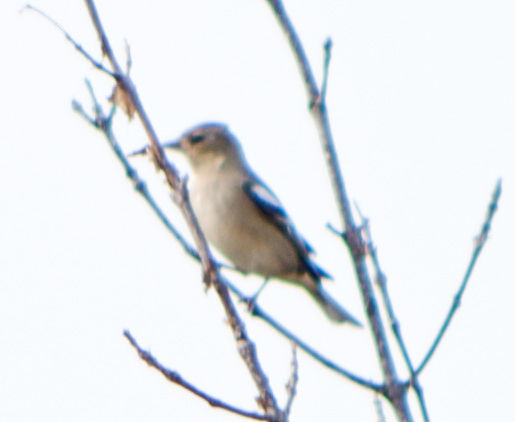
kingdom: Animalia
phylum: Chordata
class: Aves
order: Passeriformes
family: Fringillidae
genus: Fringilla
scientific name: Fringilla coelebs
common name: Common chaffinch
